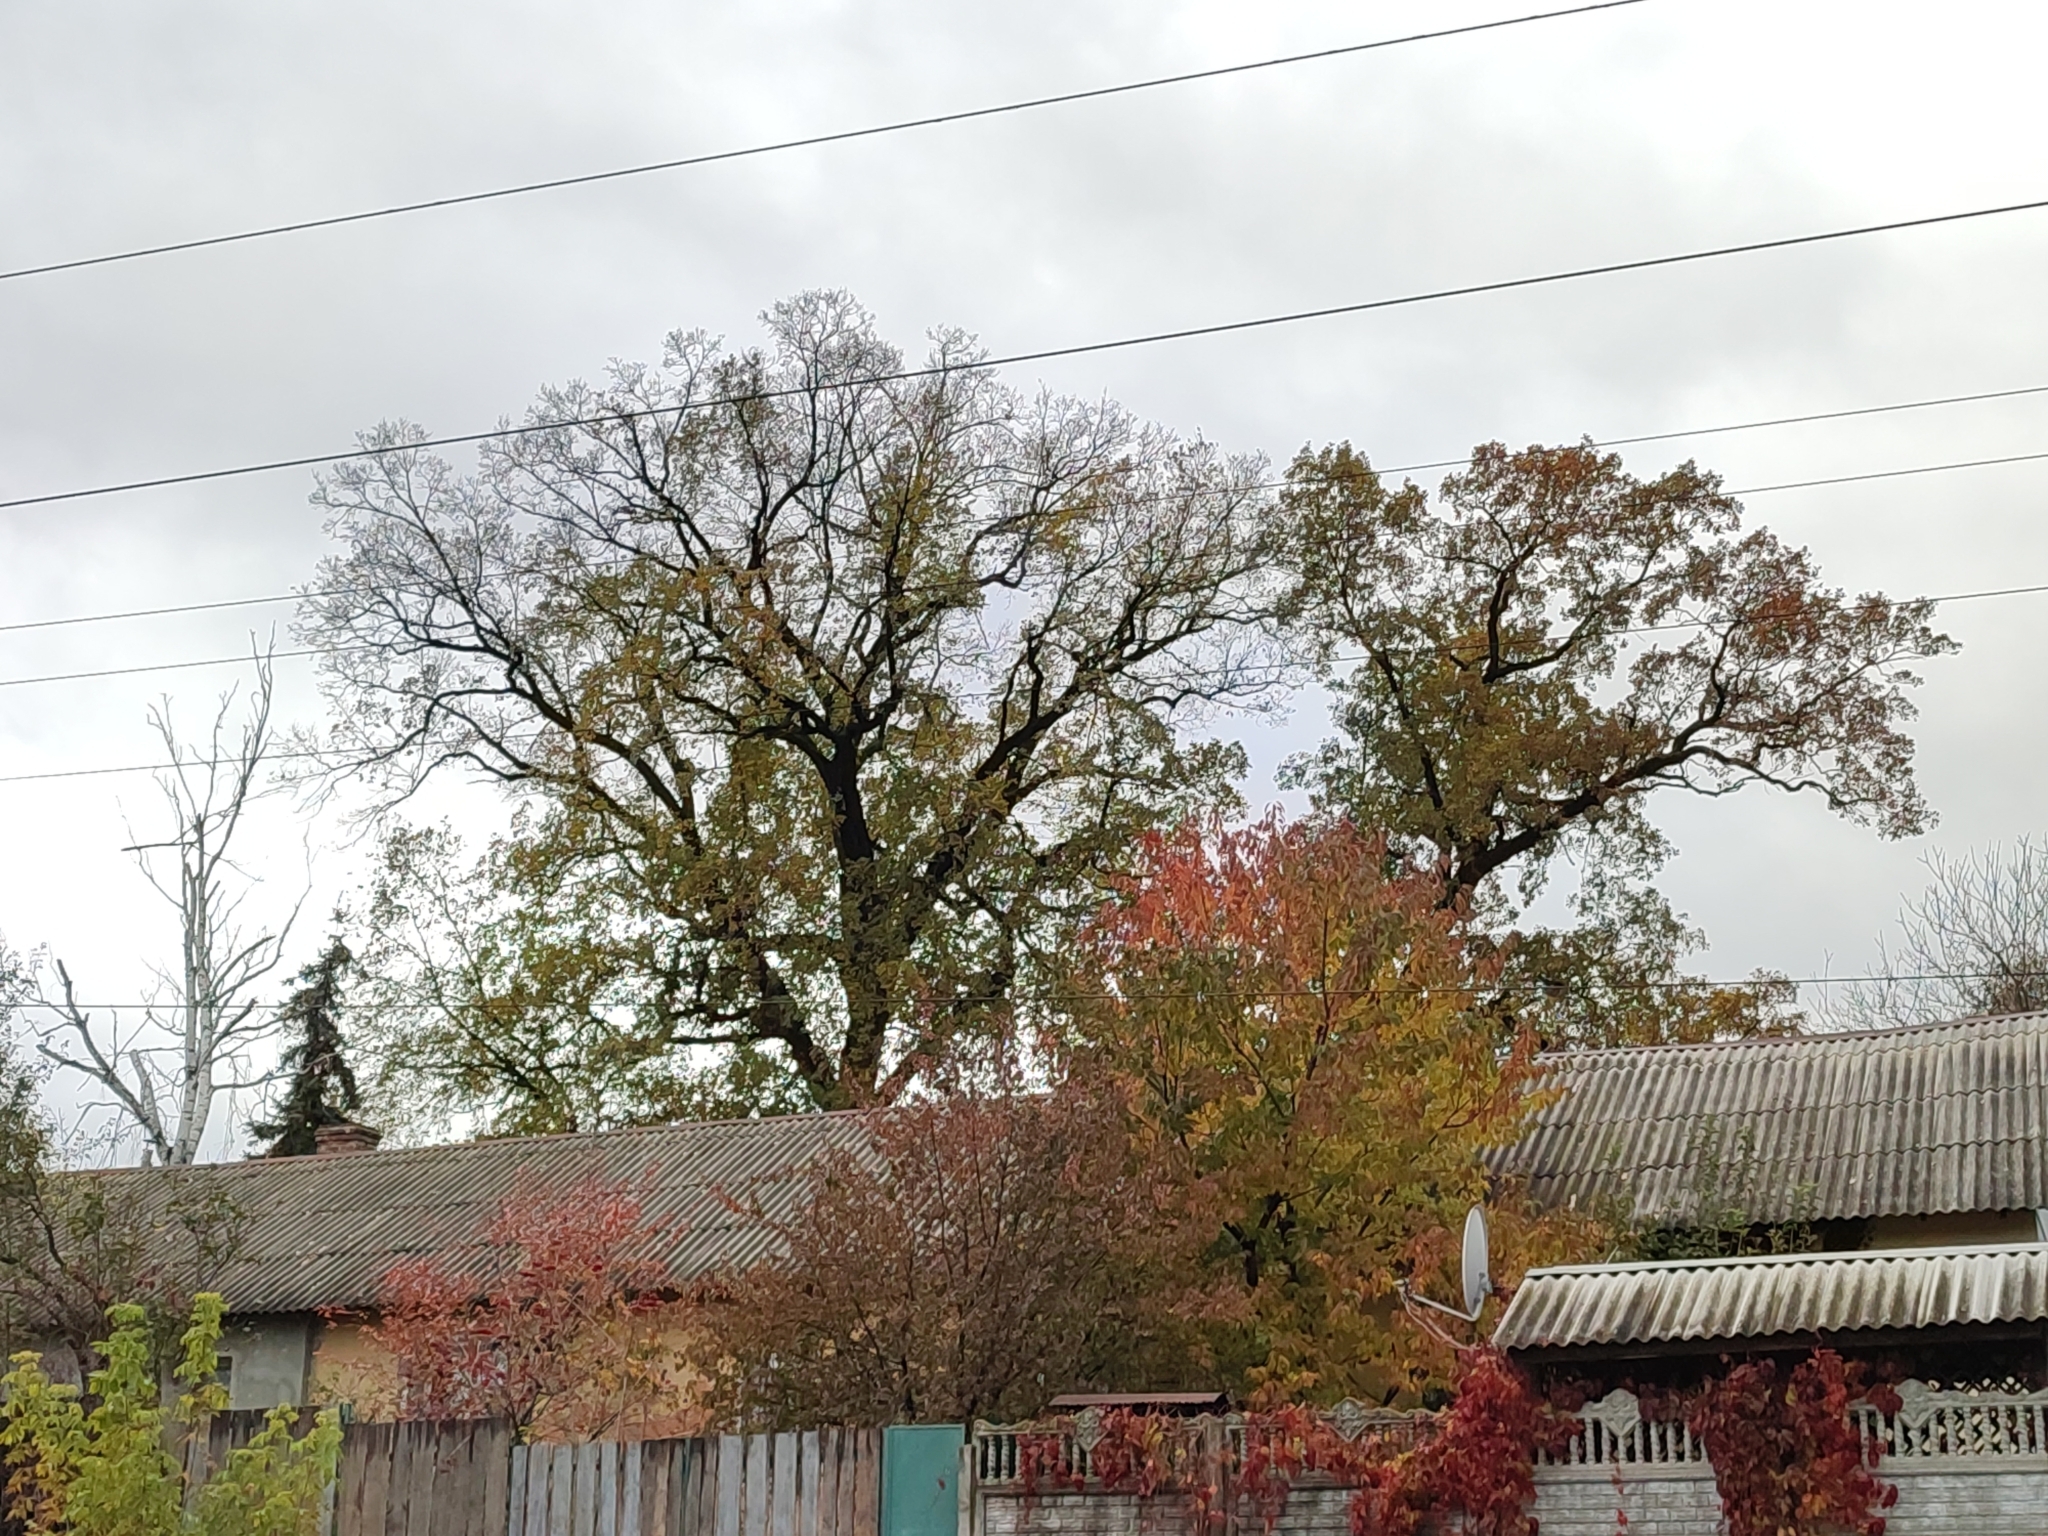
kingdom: Plantae
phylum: Tracheophyta
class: Magnoliopsida
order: Fagales
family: Fagaceae
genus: Quercus
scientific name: Quercus robur
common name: Pedunculate oak
